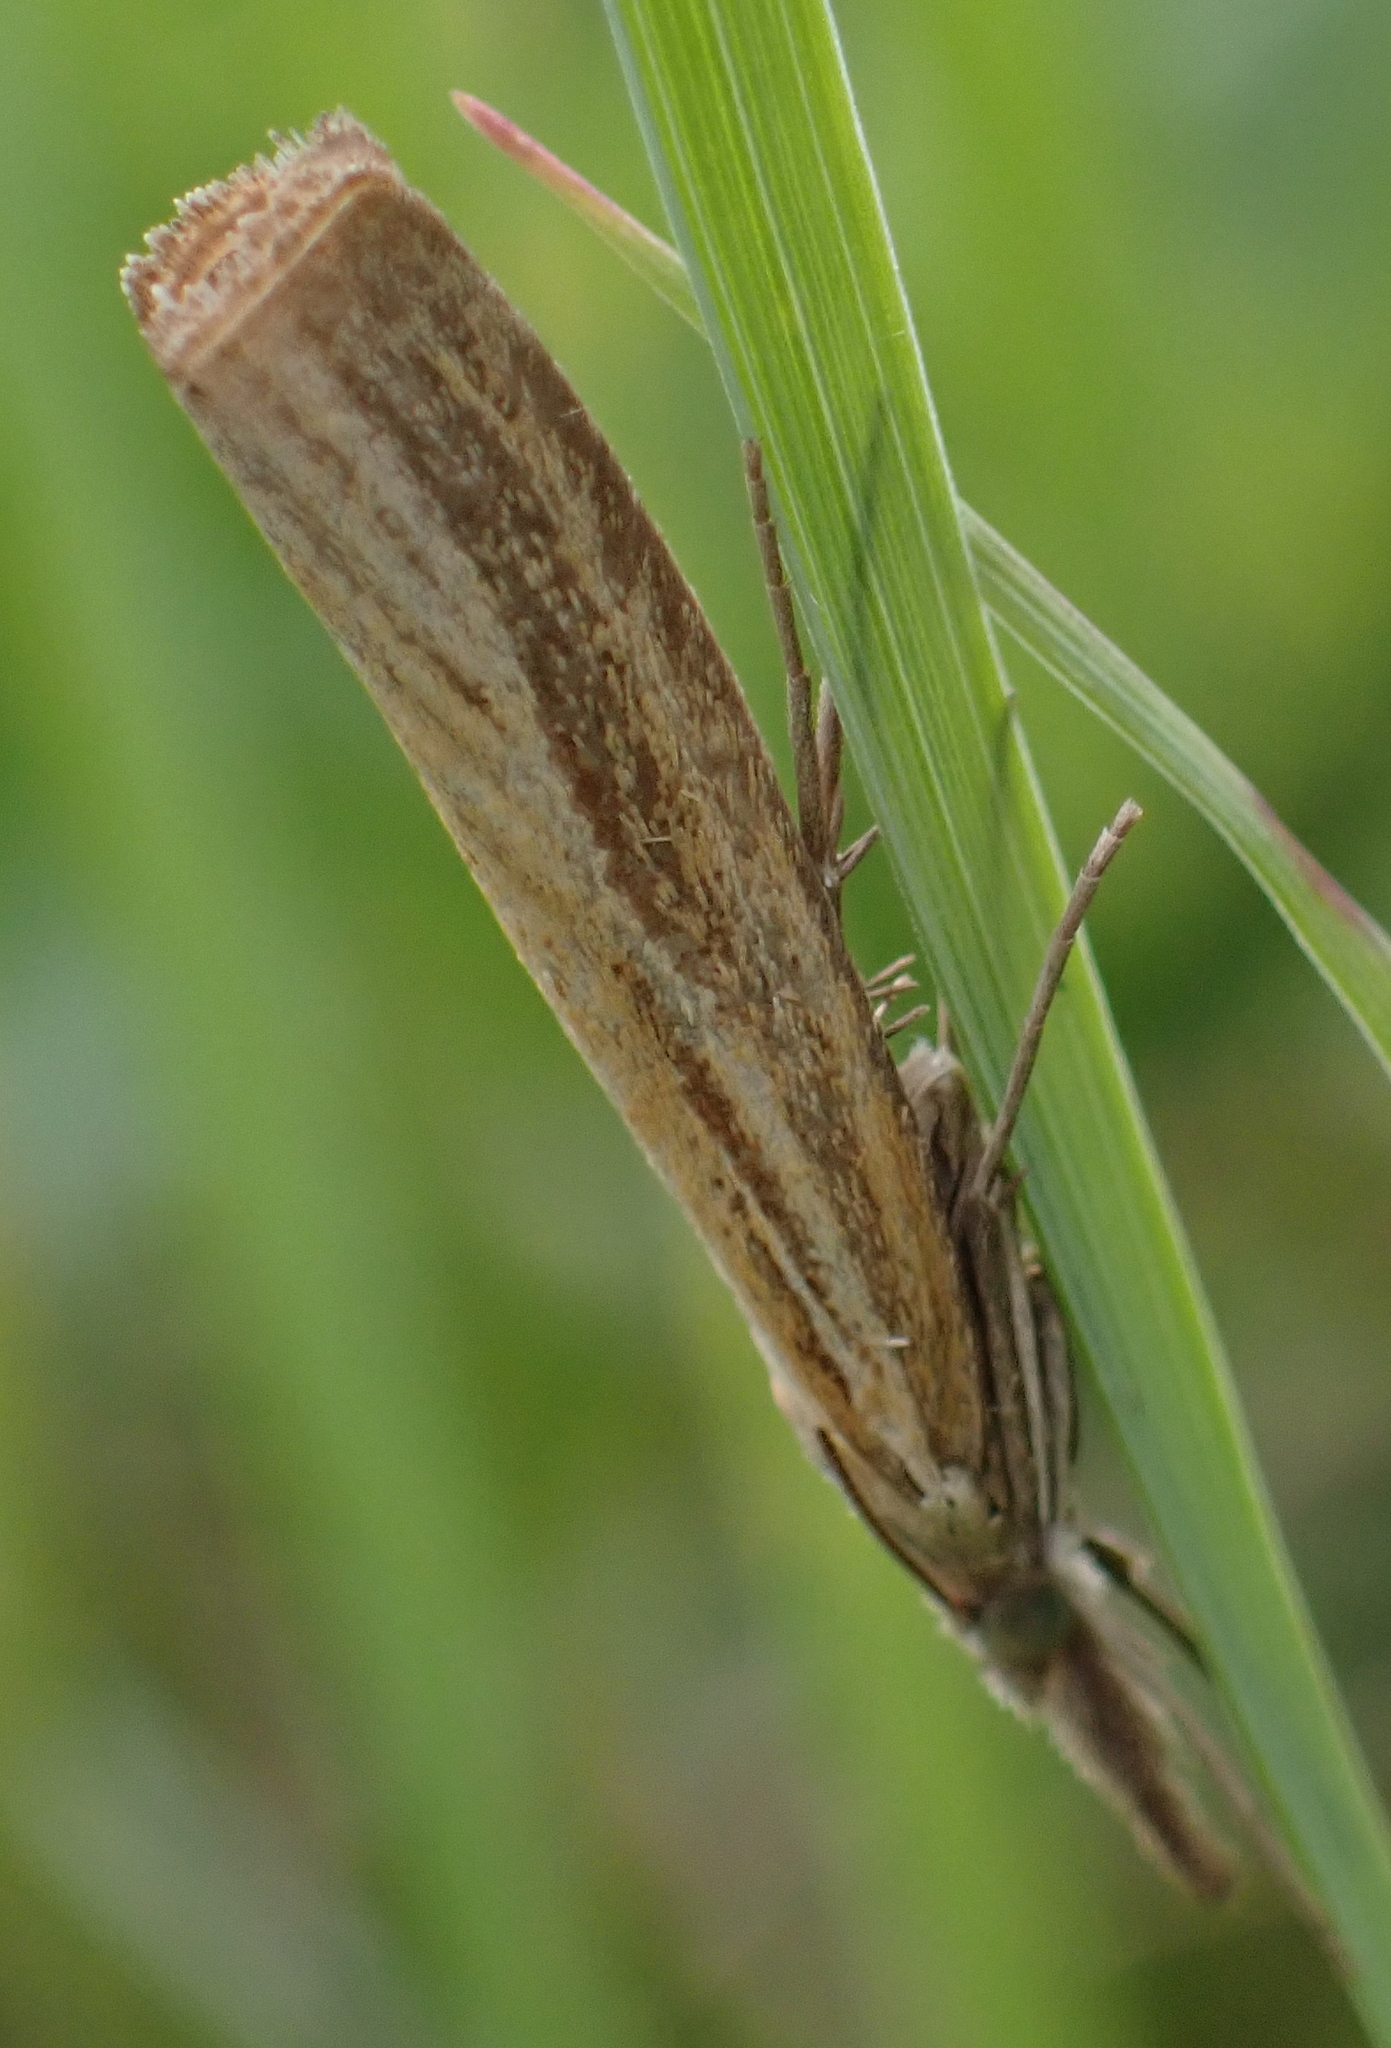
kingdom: Animalia
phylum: Arthropoda
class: Insecta
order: Lepidoptera
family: Crambidae
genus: Agriphila
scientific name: Agriphila tristellus
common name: Common grass-veneer
